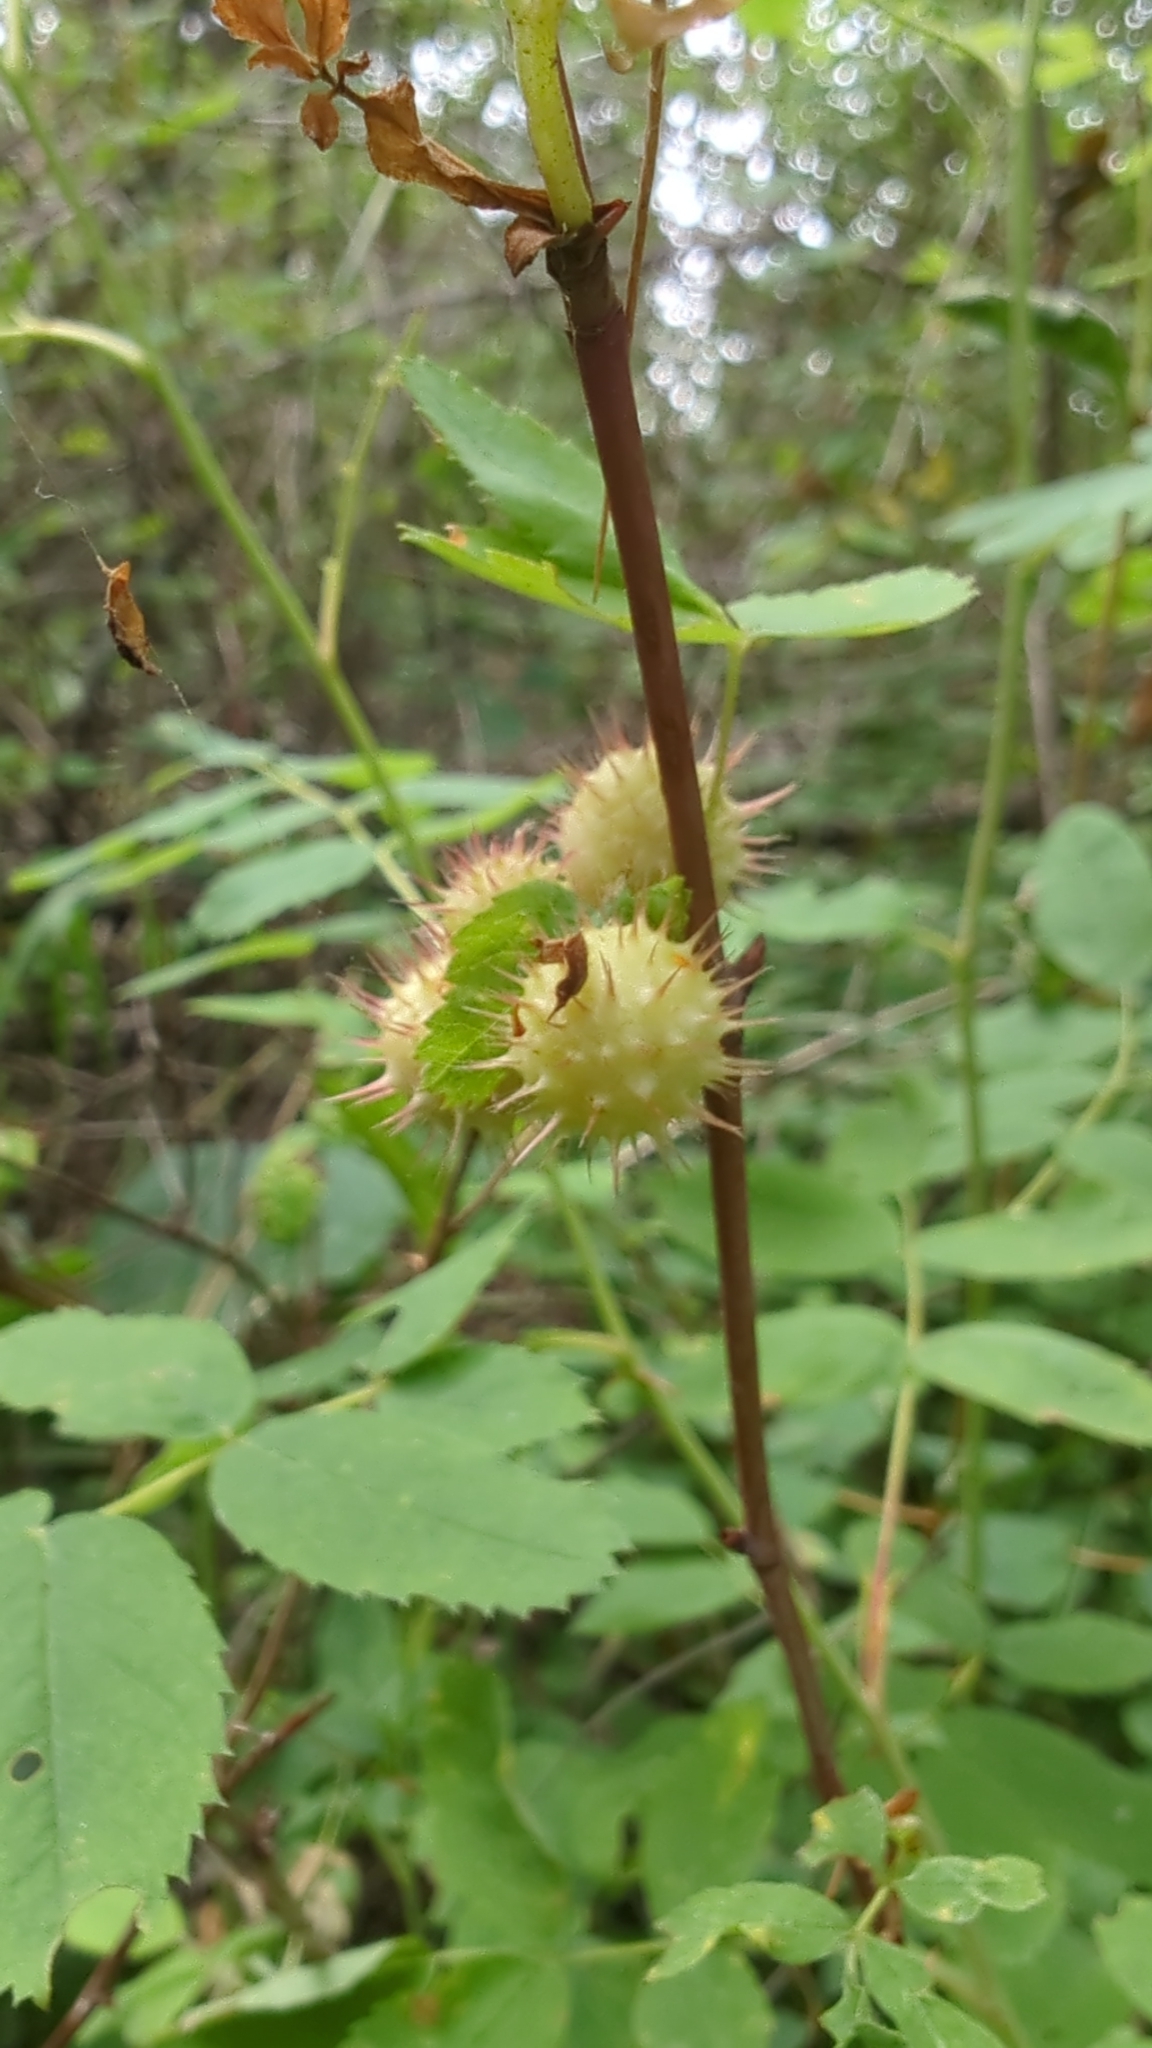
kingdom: Animalia
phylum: Arthropoda
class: Insecta
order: Hymenoptera
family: Cynipidae
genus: Diplolepis
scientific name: Diplolepis polita
